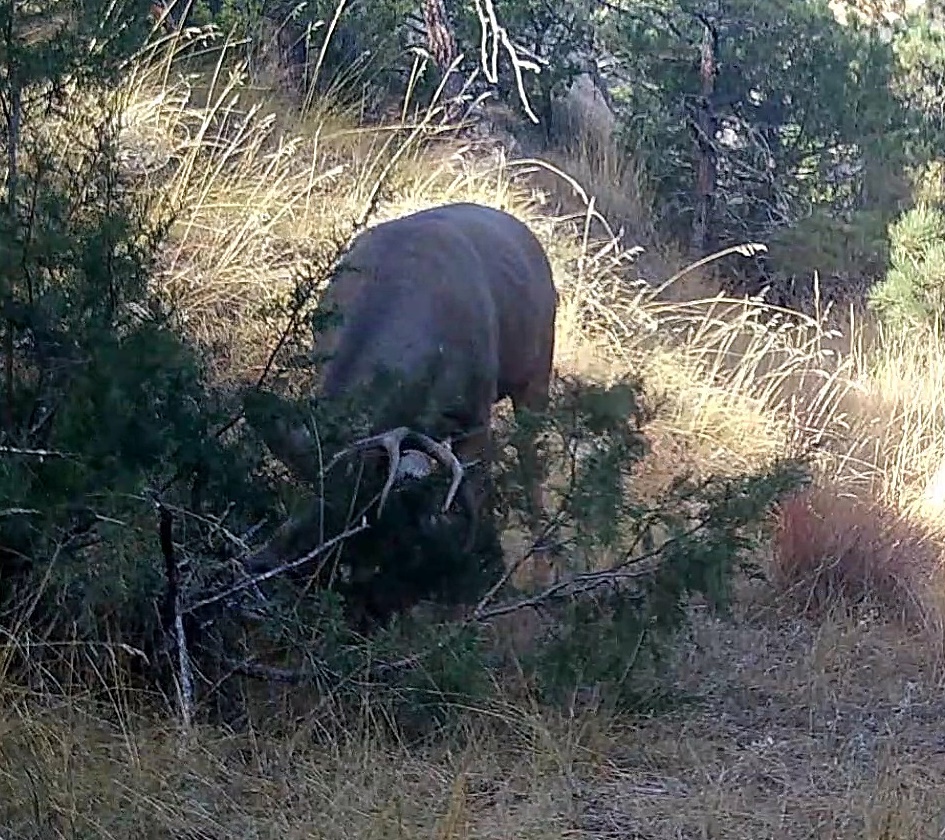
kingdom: Animalia
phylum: Chordata
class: Mammalia
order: Artiodactyla
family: Cervidae
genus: Odocoileus
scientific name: Odocoileus hemionus
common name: Mule deer
